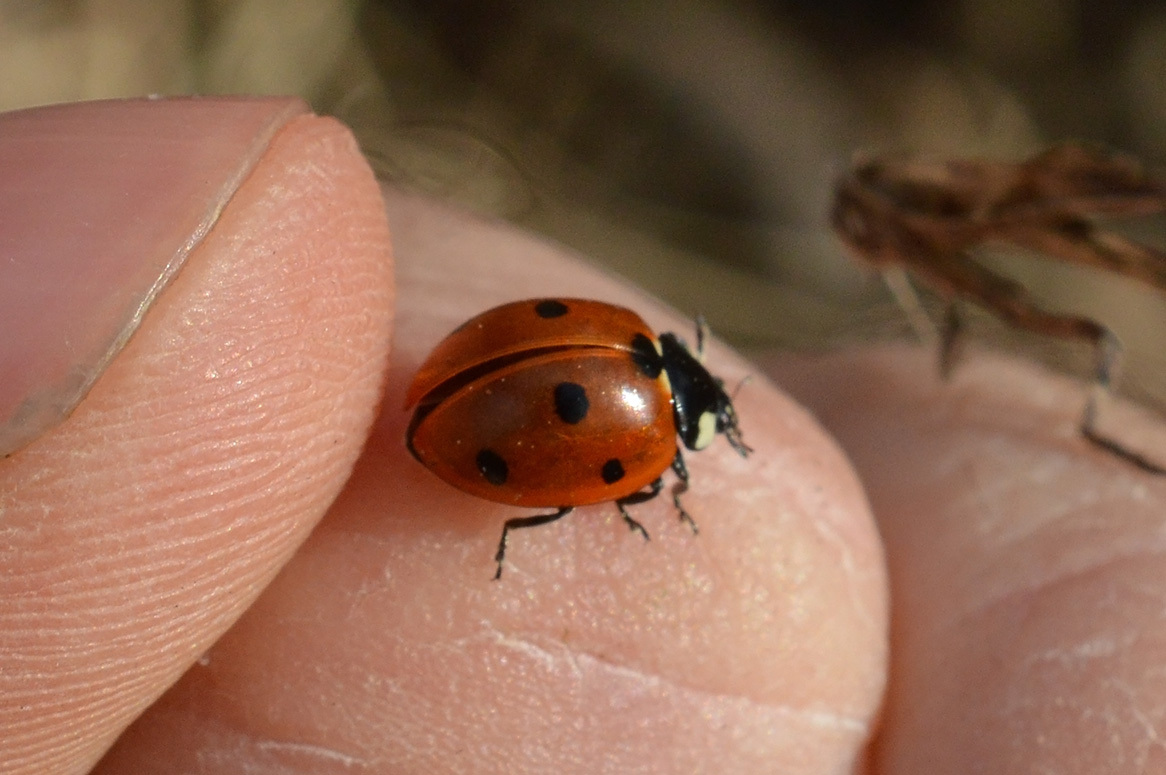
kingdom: Animalia
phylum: Arthropoda
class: Insecta
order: Coleoptera
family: Coccinellidae
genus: Coccinella
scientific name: Coccinella septempunctata
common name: Sevenspotted lady beetle
